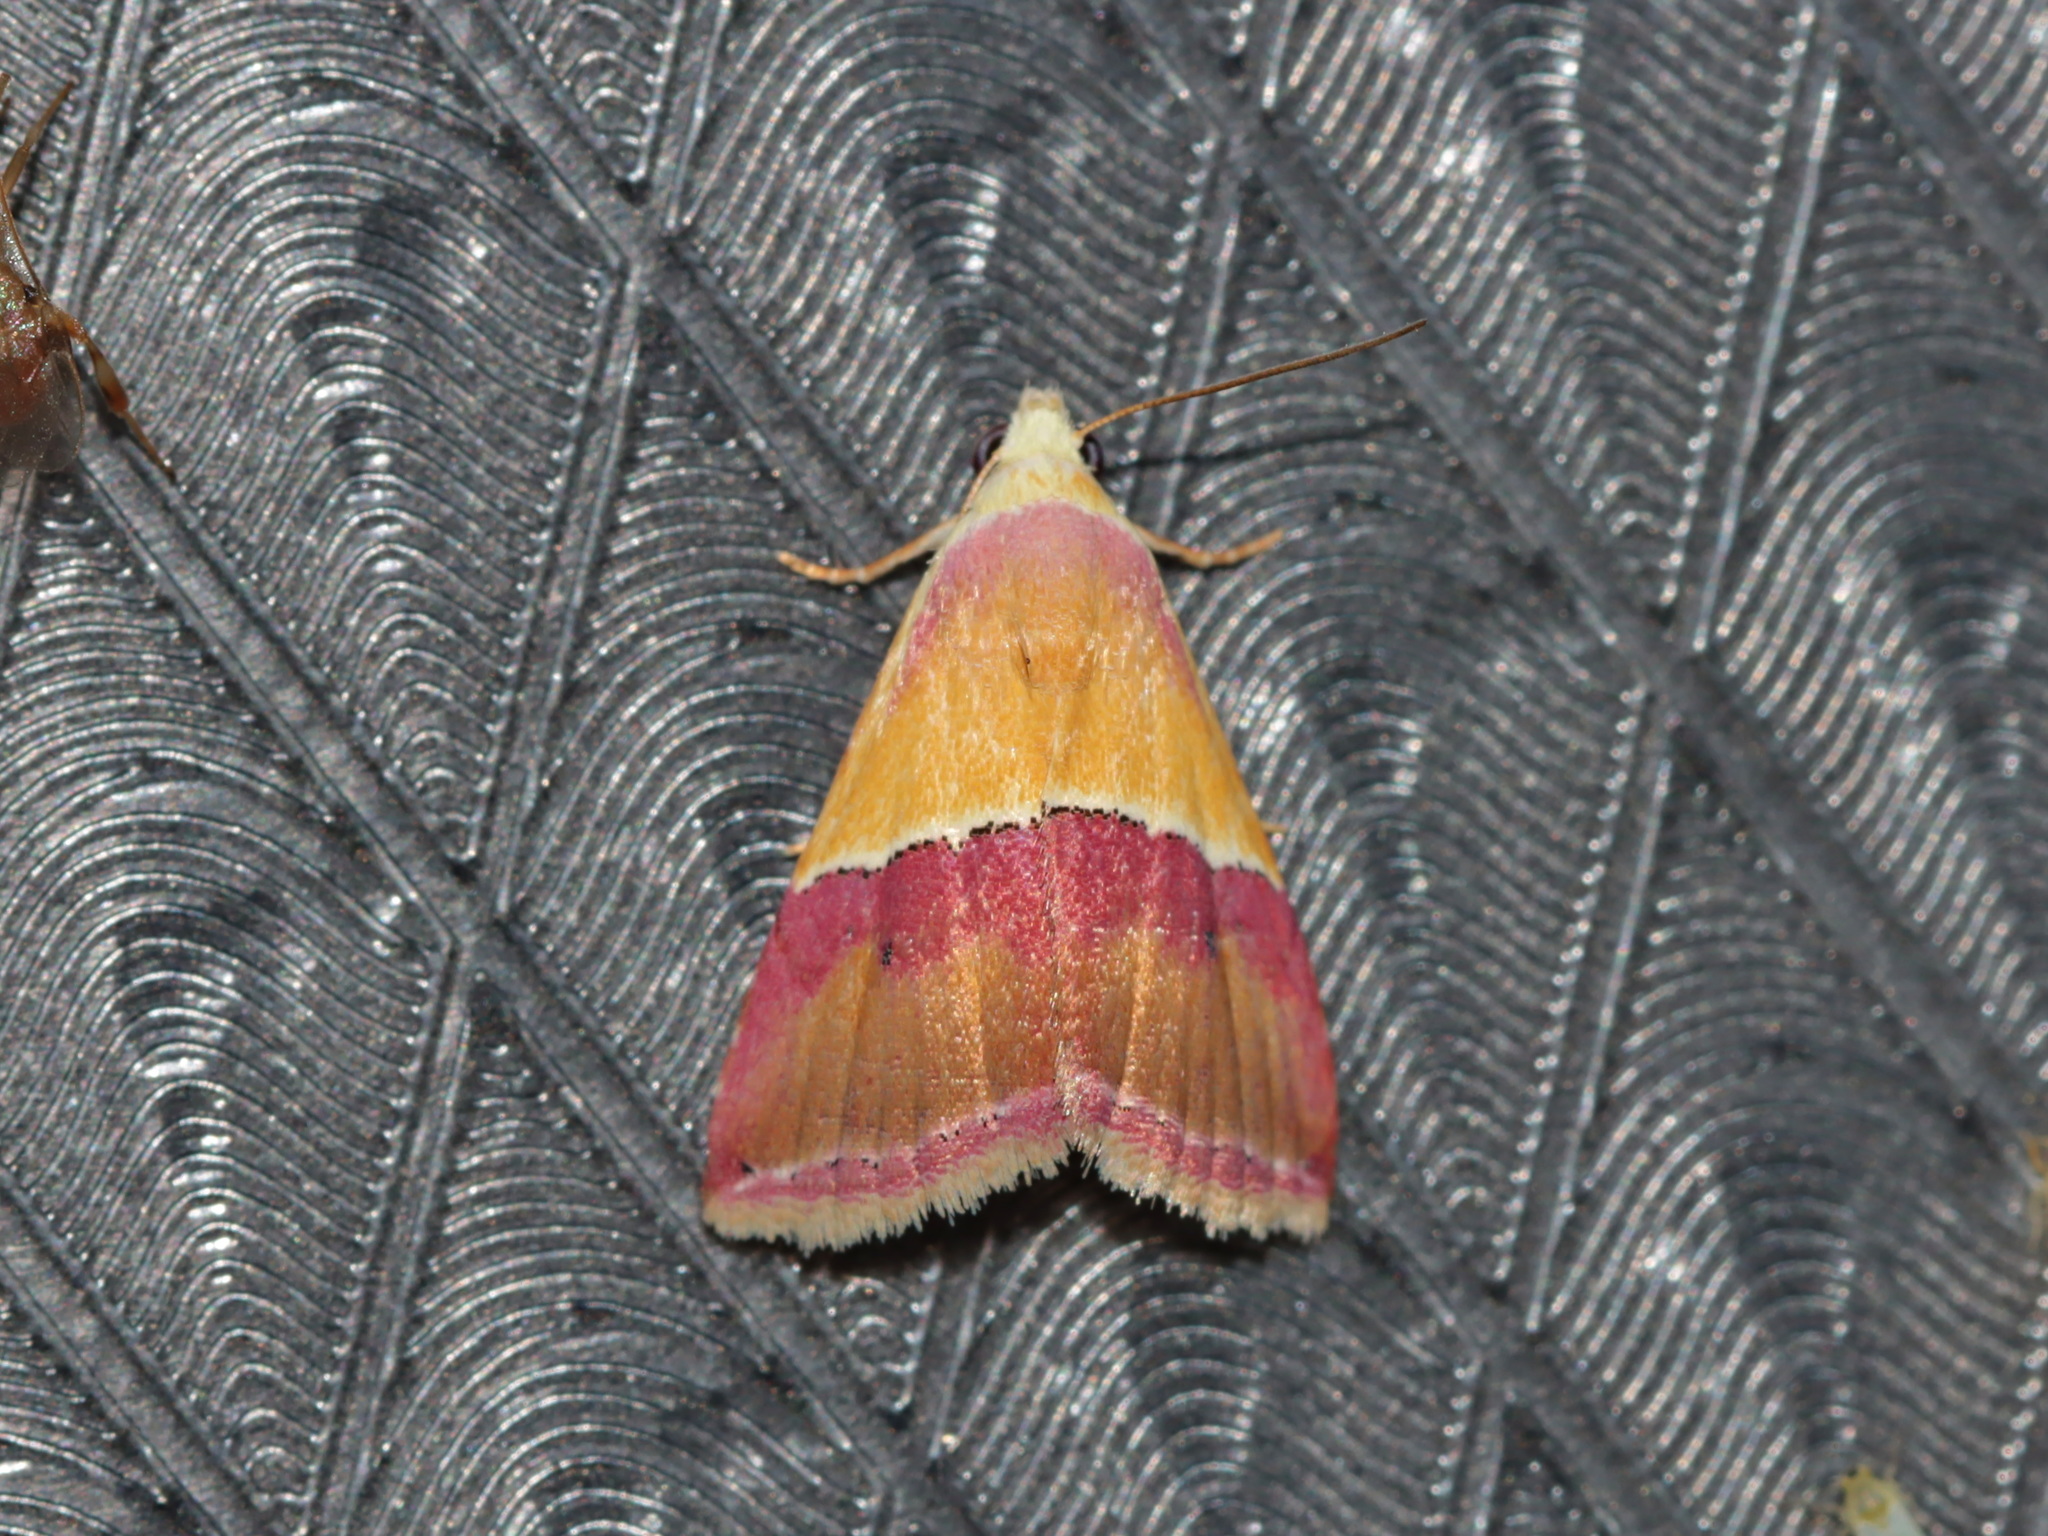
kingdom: Animalia
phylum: Arthropoda
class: Insecta
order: Lepidoptera
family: Noctuidae
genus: Eublemma
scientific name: Eublemma accedens
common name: Moth
